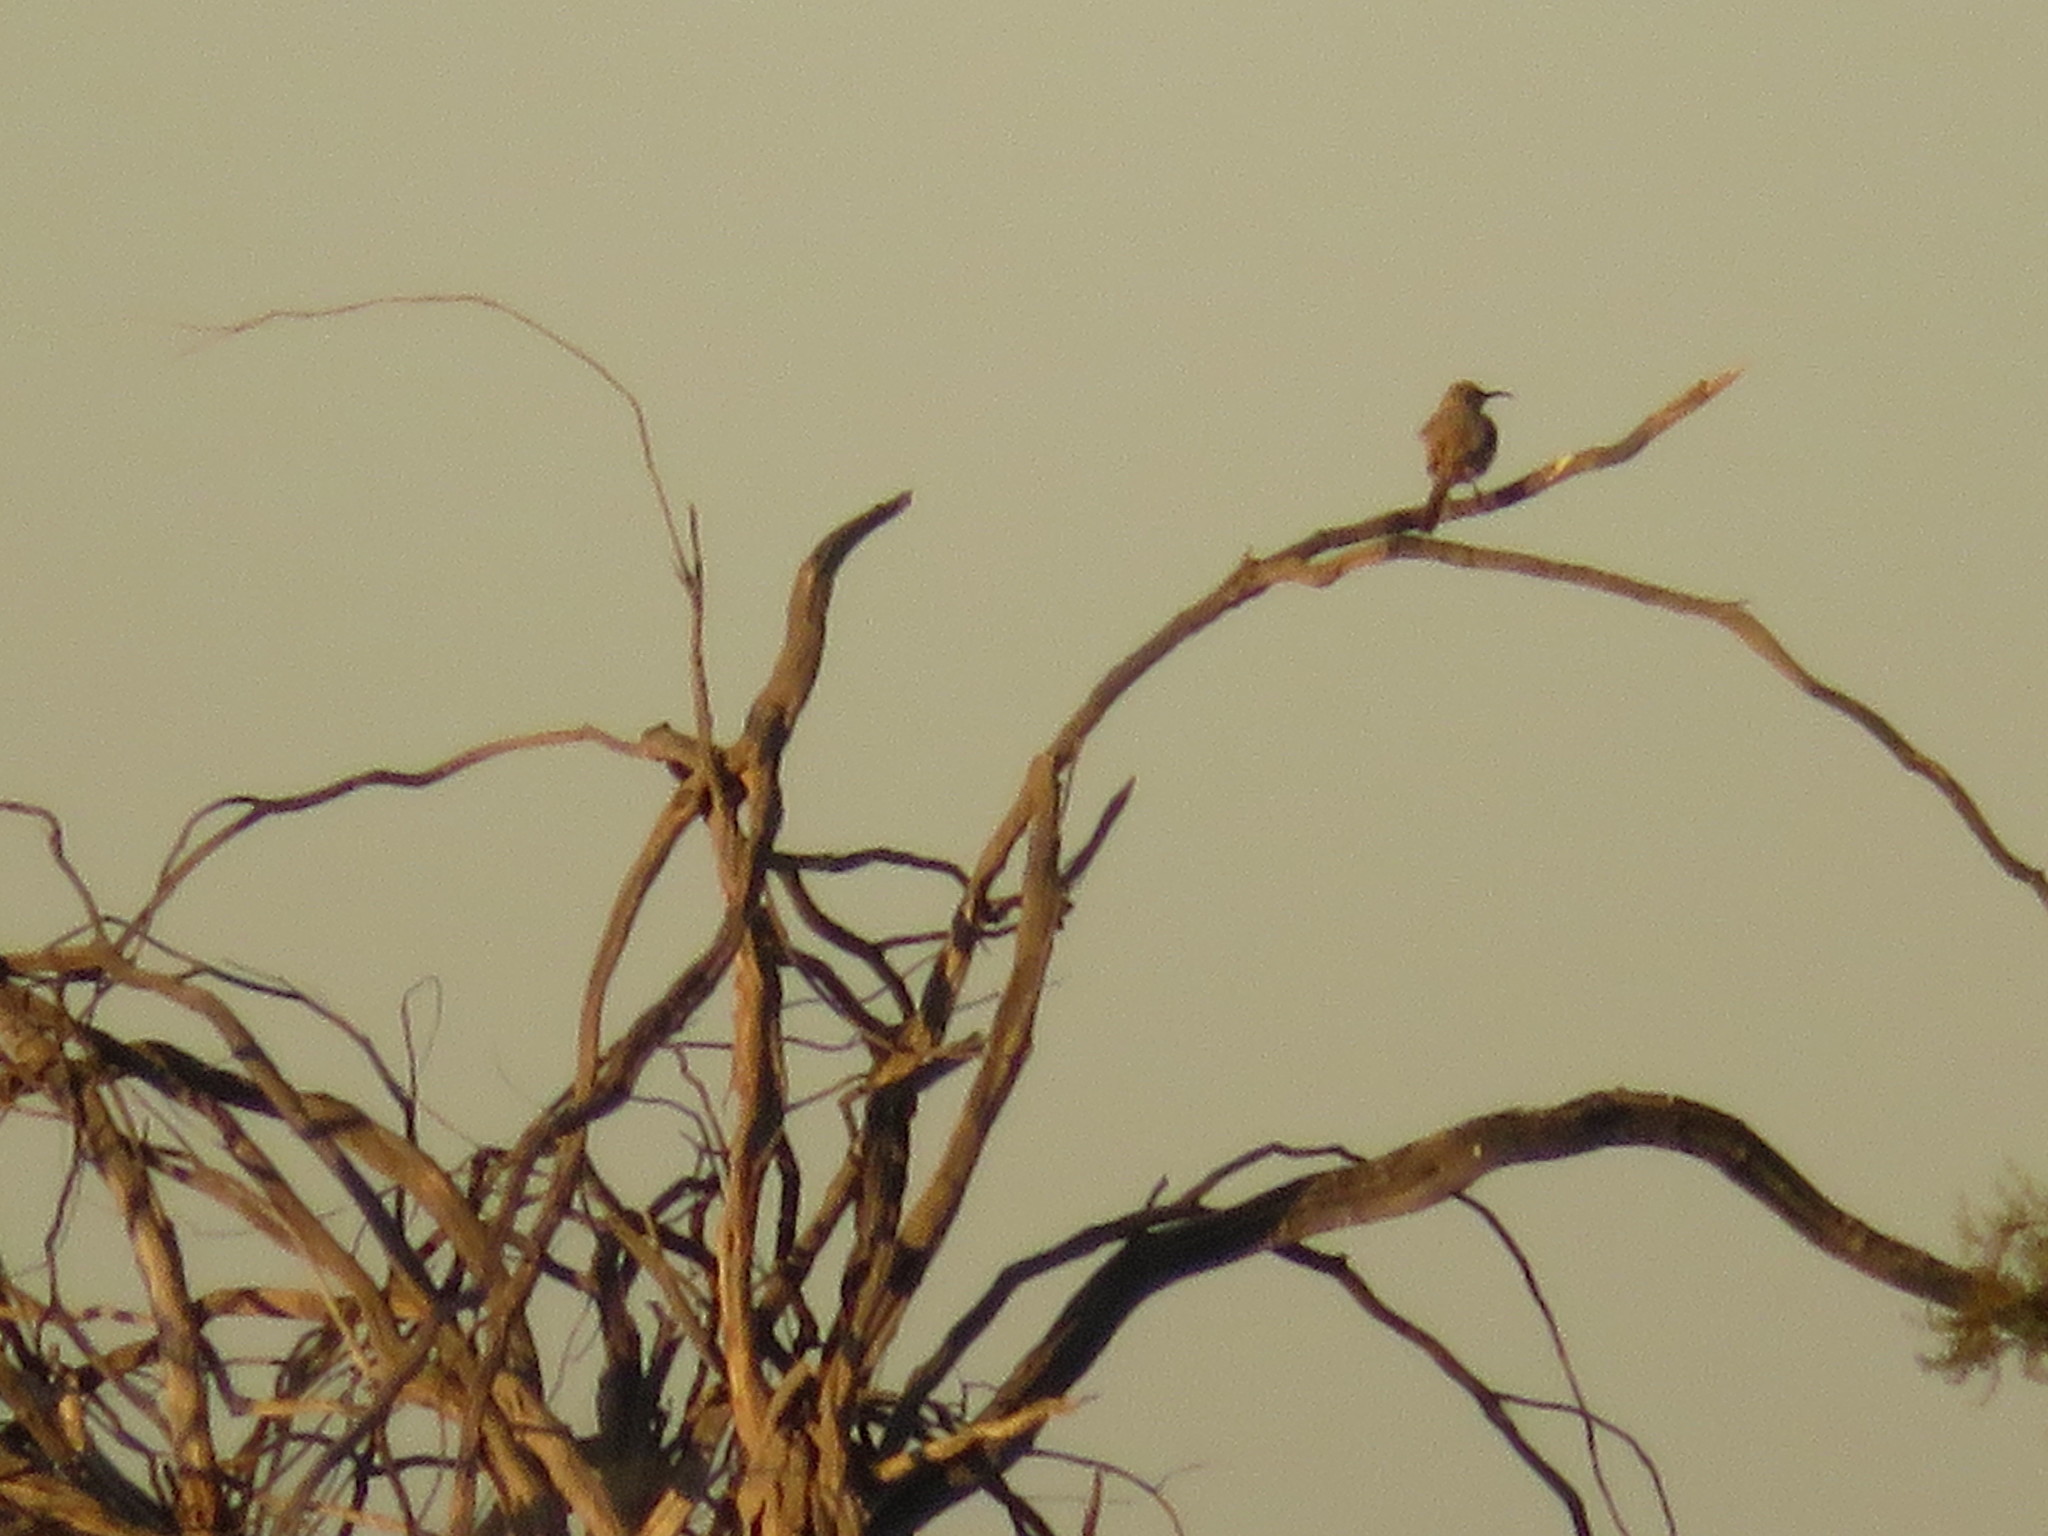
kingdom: Animalia
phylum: Chordata
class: Aves
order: Passeriformes
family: Mimidae
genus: Toxostoma
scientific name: Toxostoma lecontei
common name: Le conte's thrasher
